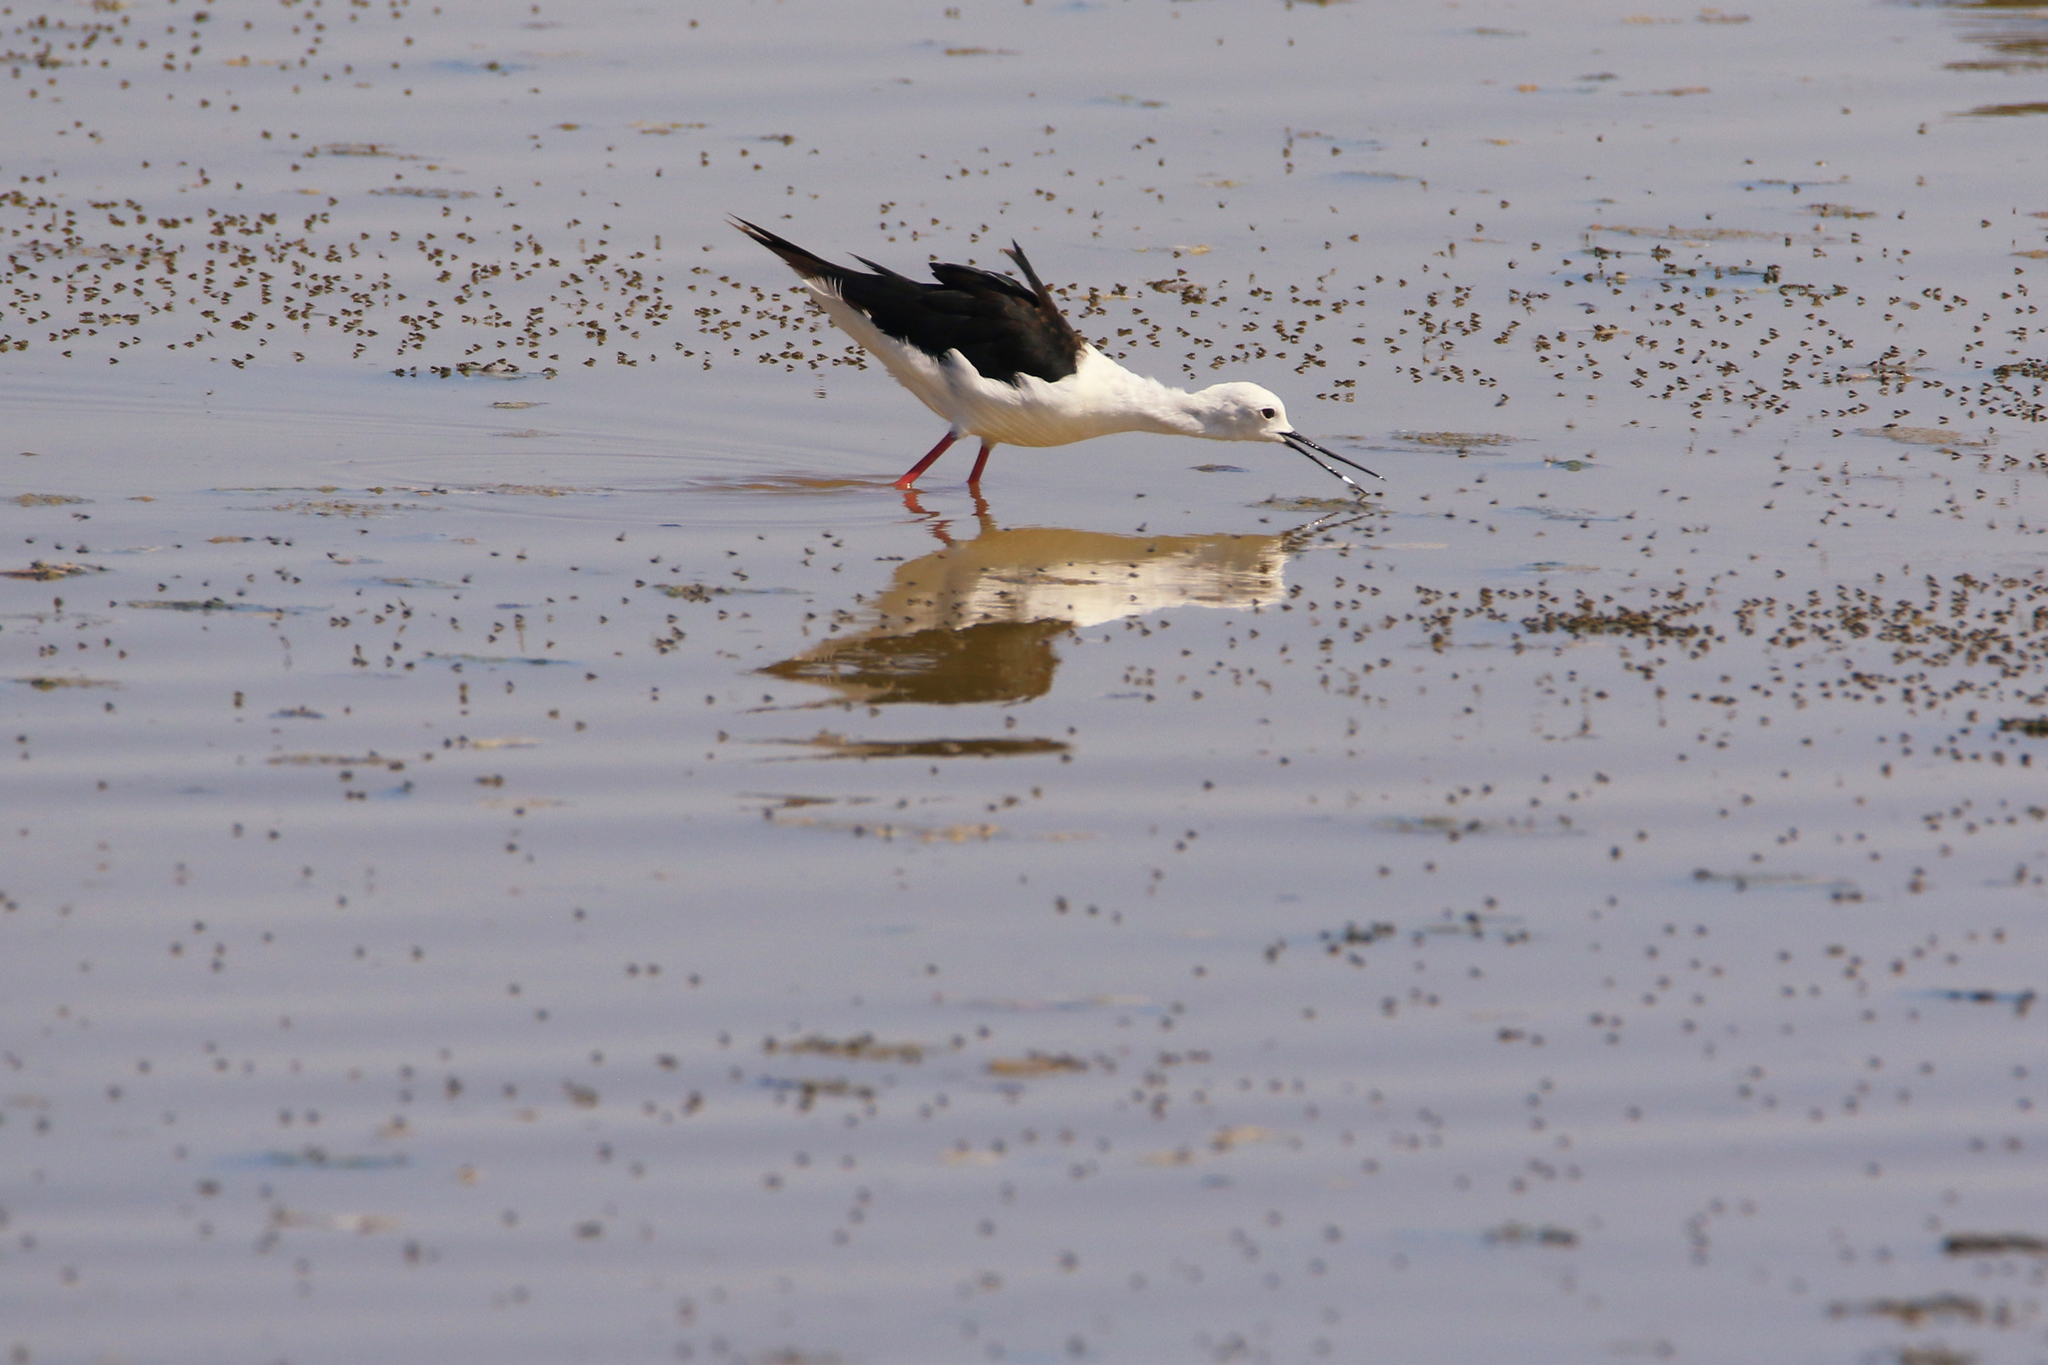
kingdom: Animalia
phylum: Chordata
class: Aves
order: Charadriiformes
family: Recurvirostridae
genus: Himantopus
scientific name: Himantopus himantopus
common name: Black-winged stilt
